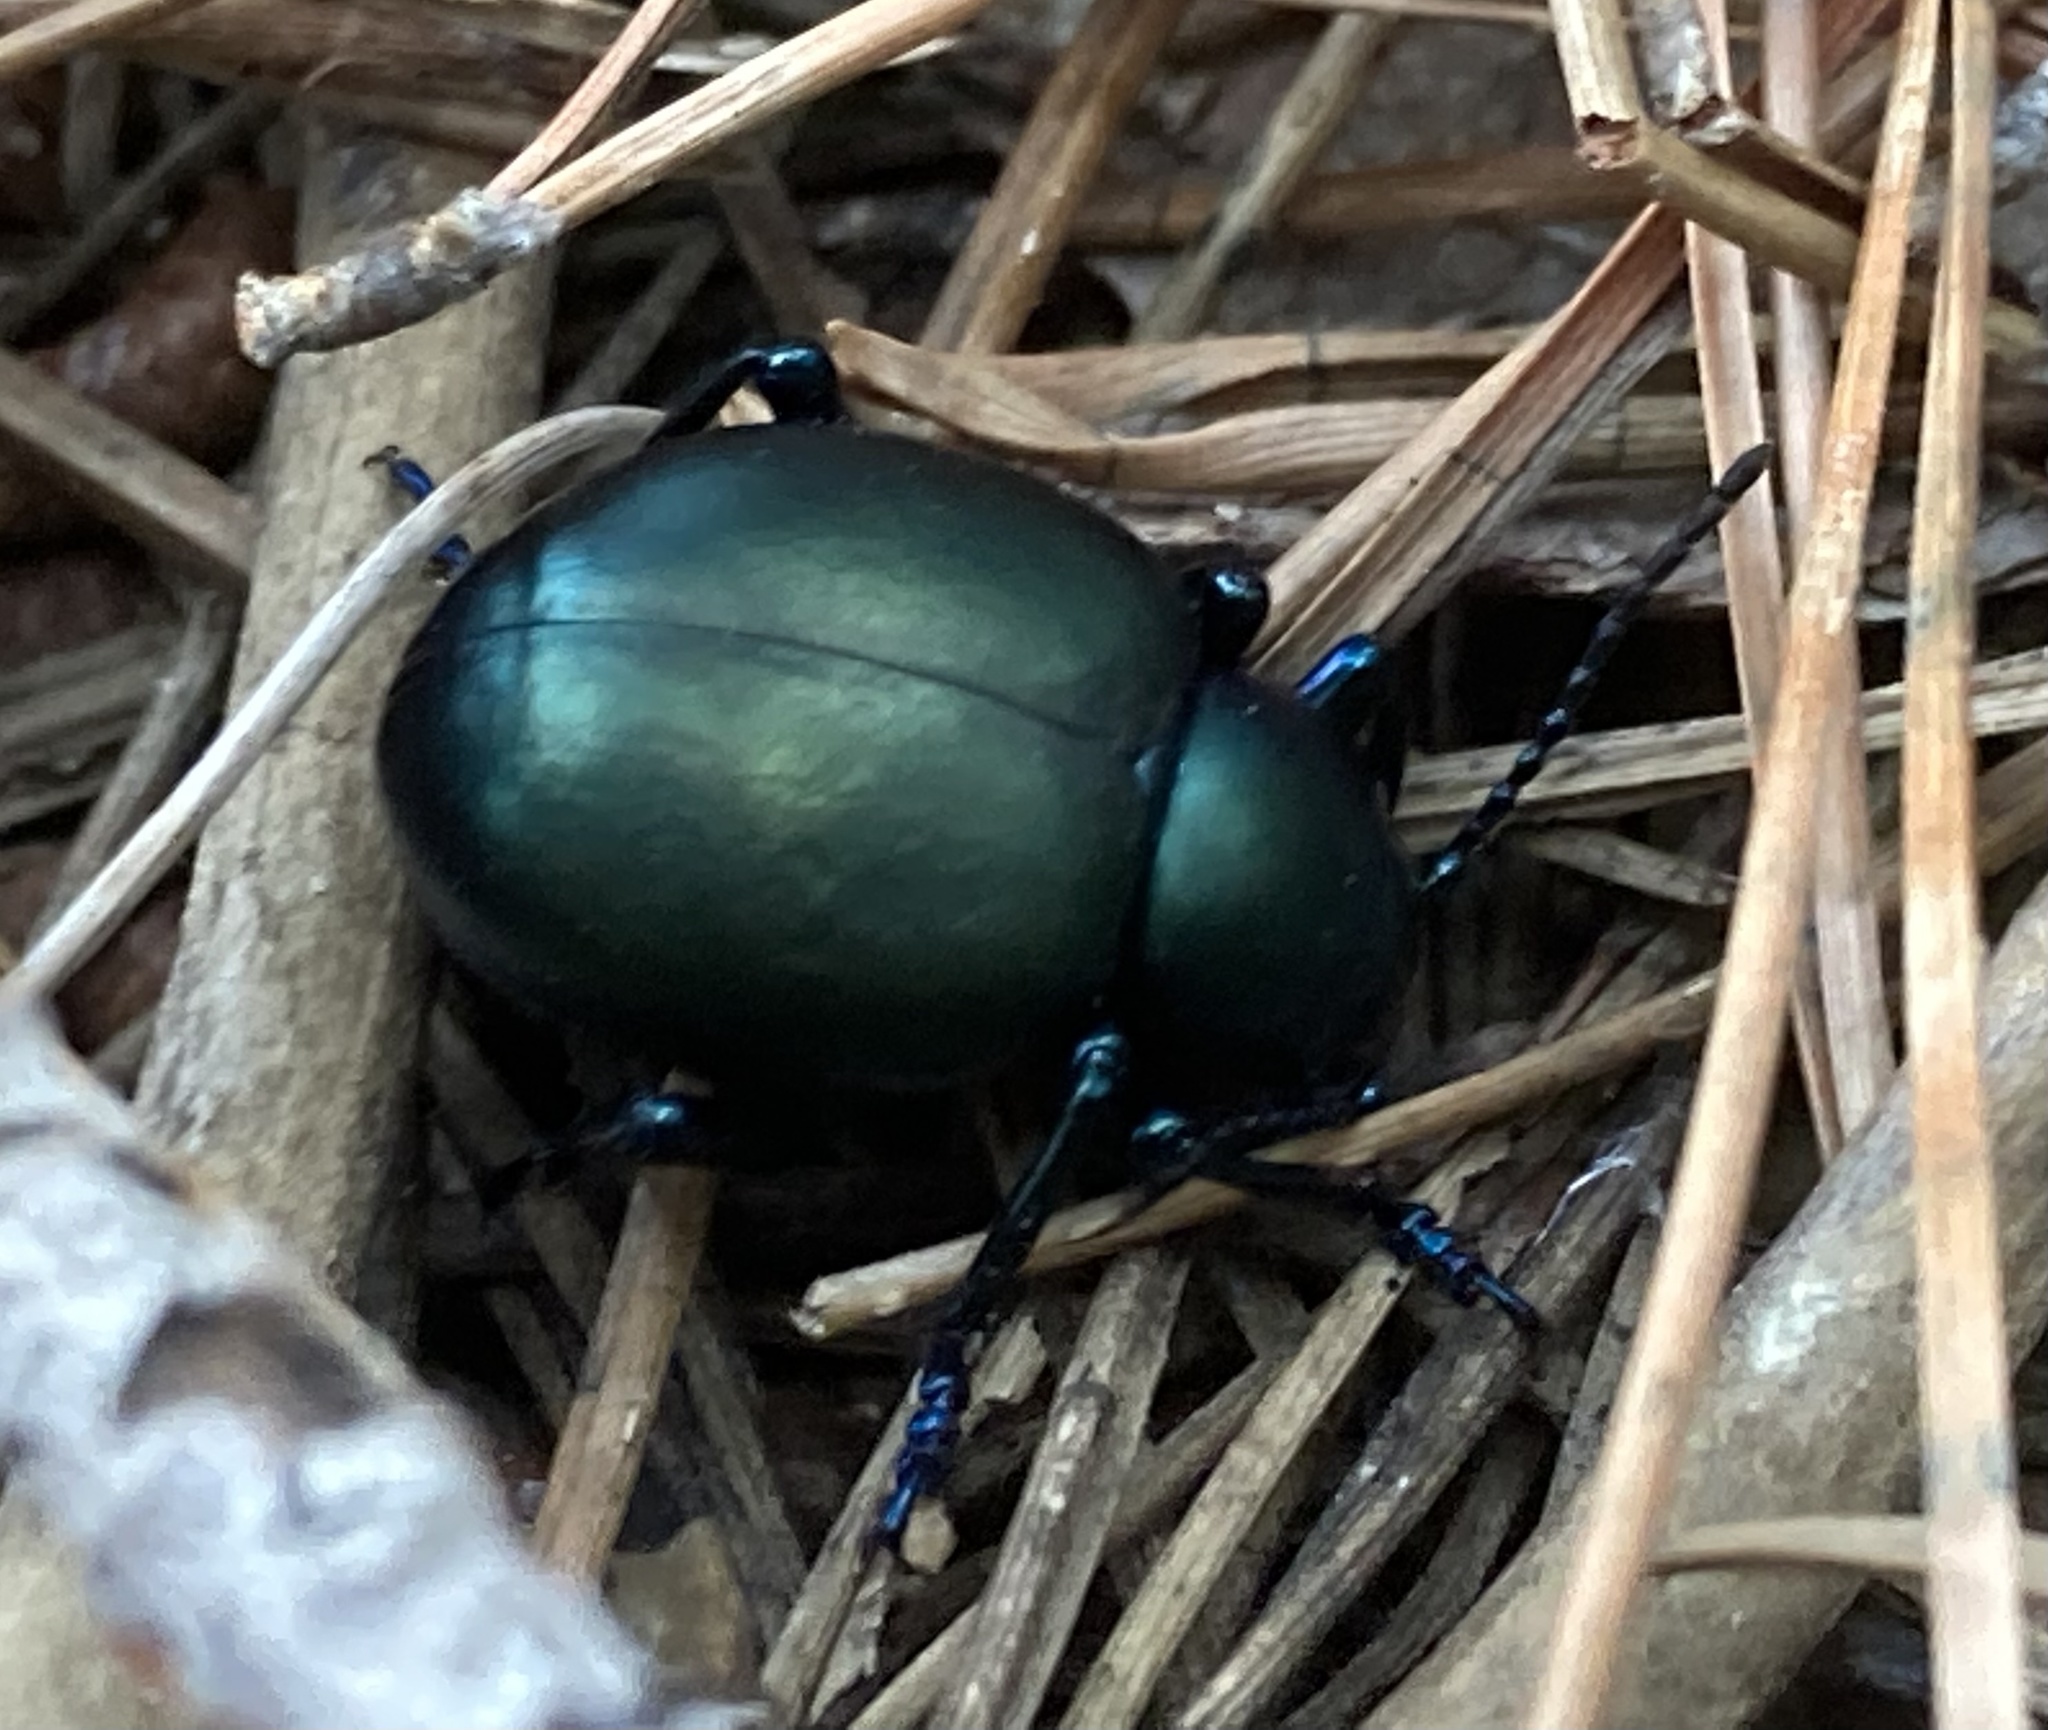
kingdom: Animalia
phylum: Arthropoda
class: Insecta
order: Coleoptera
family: Chrysomelidae
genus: Timarcha
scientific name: Timarcha balearica
